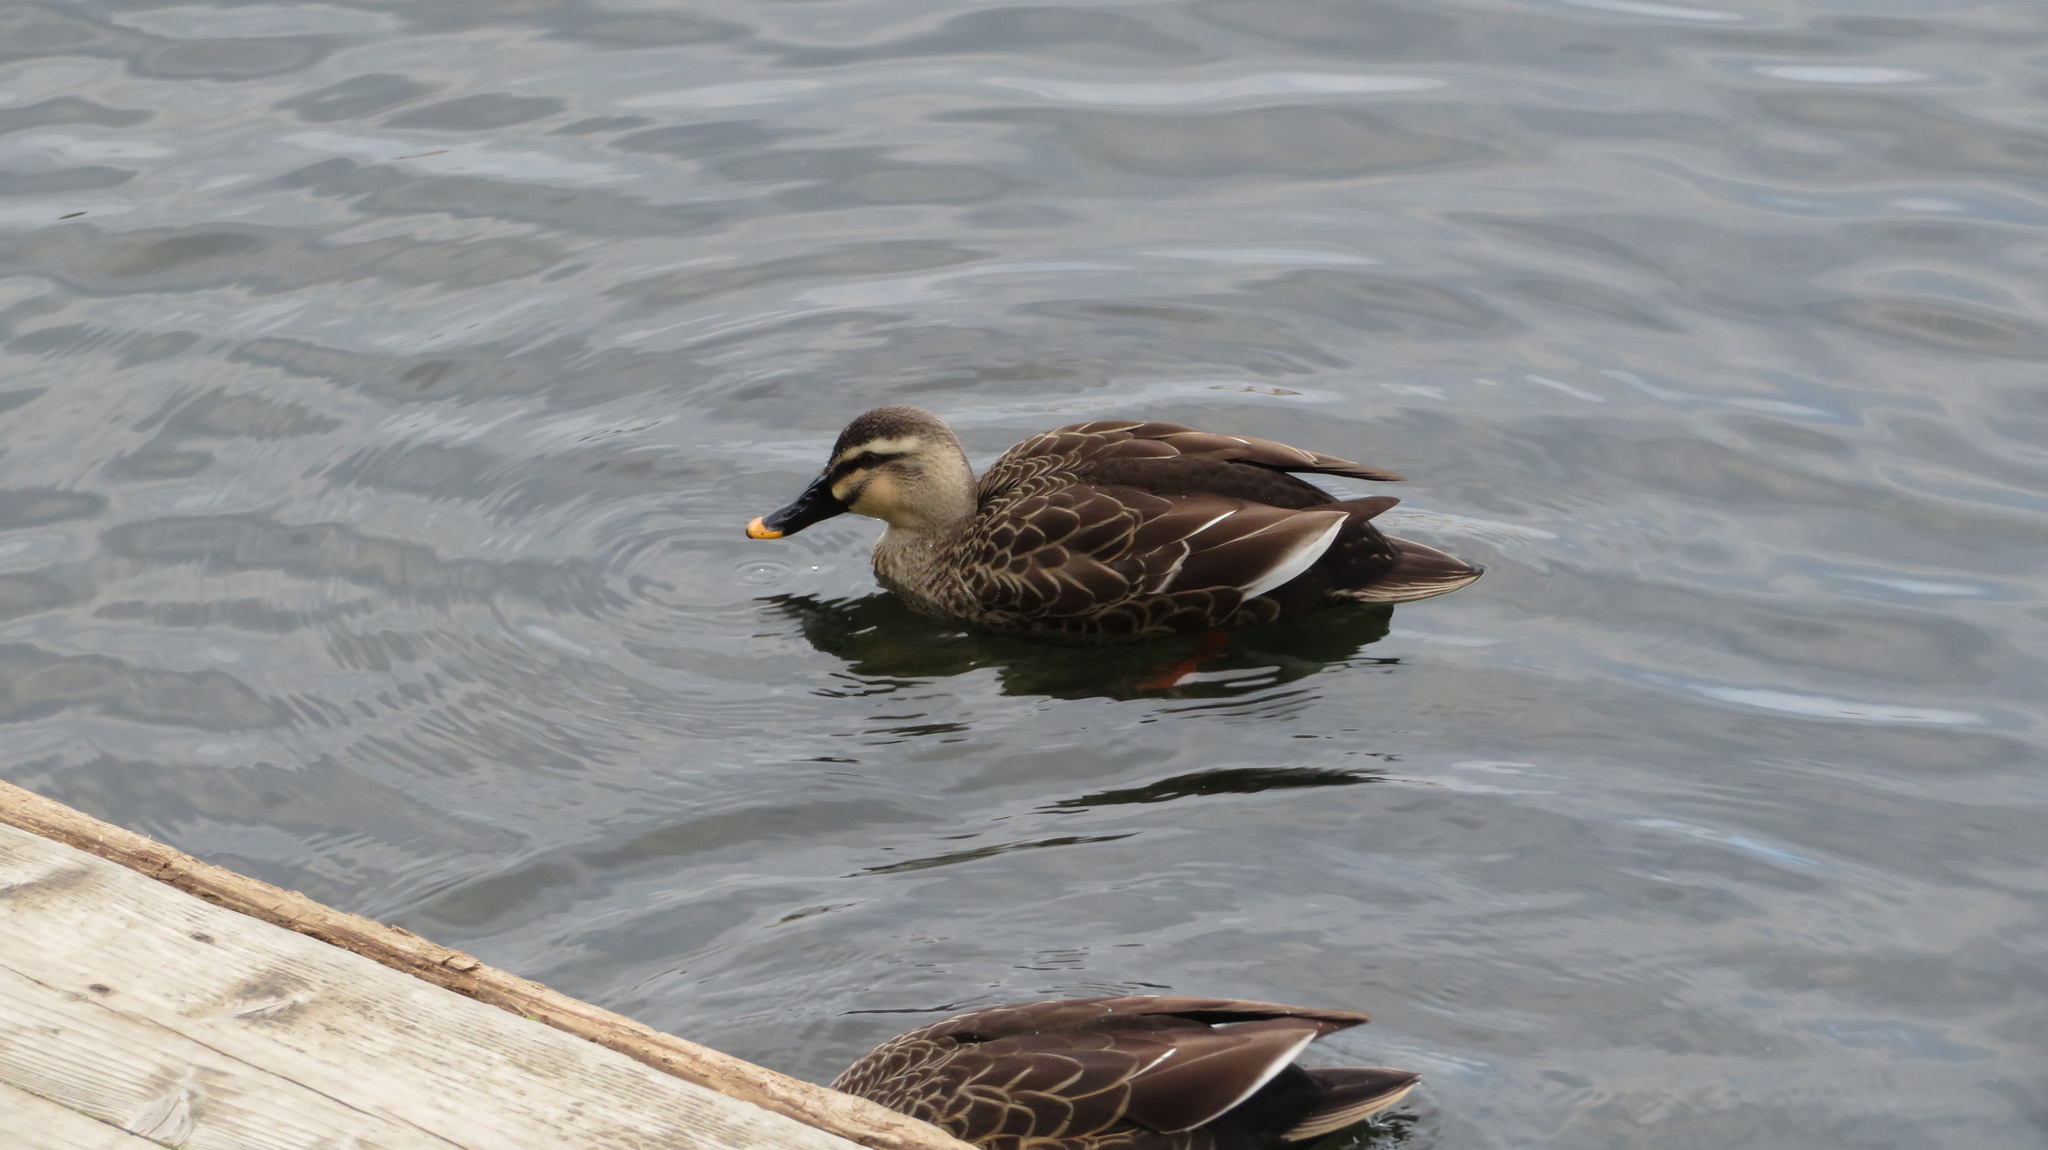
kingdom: Animalia
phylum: Chordata
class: Aves
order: Anseriformes
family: Anatidae
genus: Anas
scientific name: Anas zonorhyncha
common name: Eastern spot-billed duck
